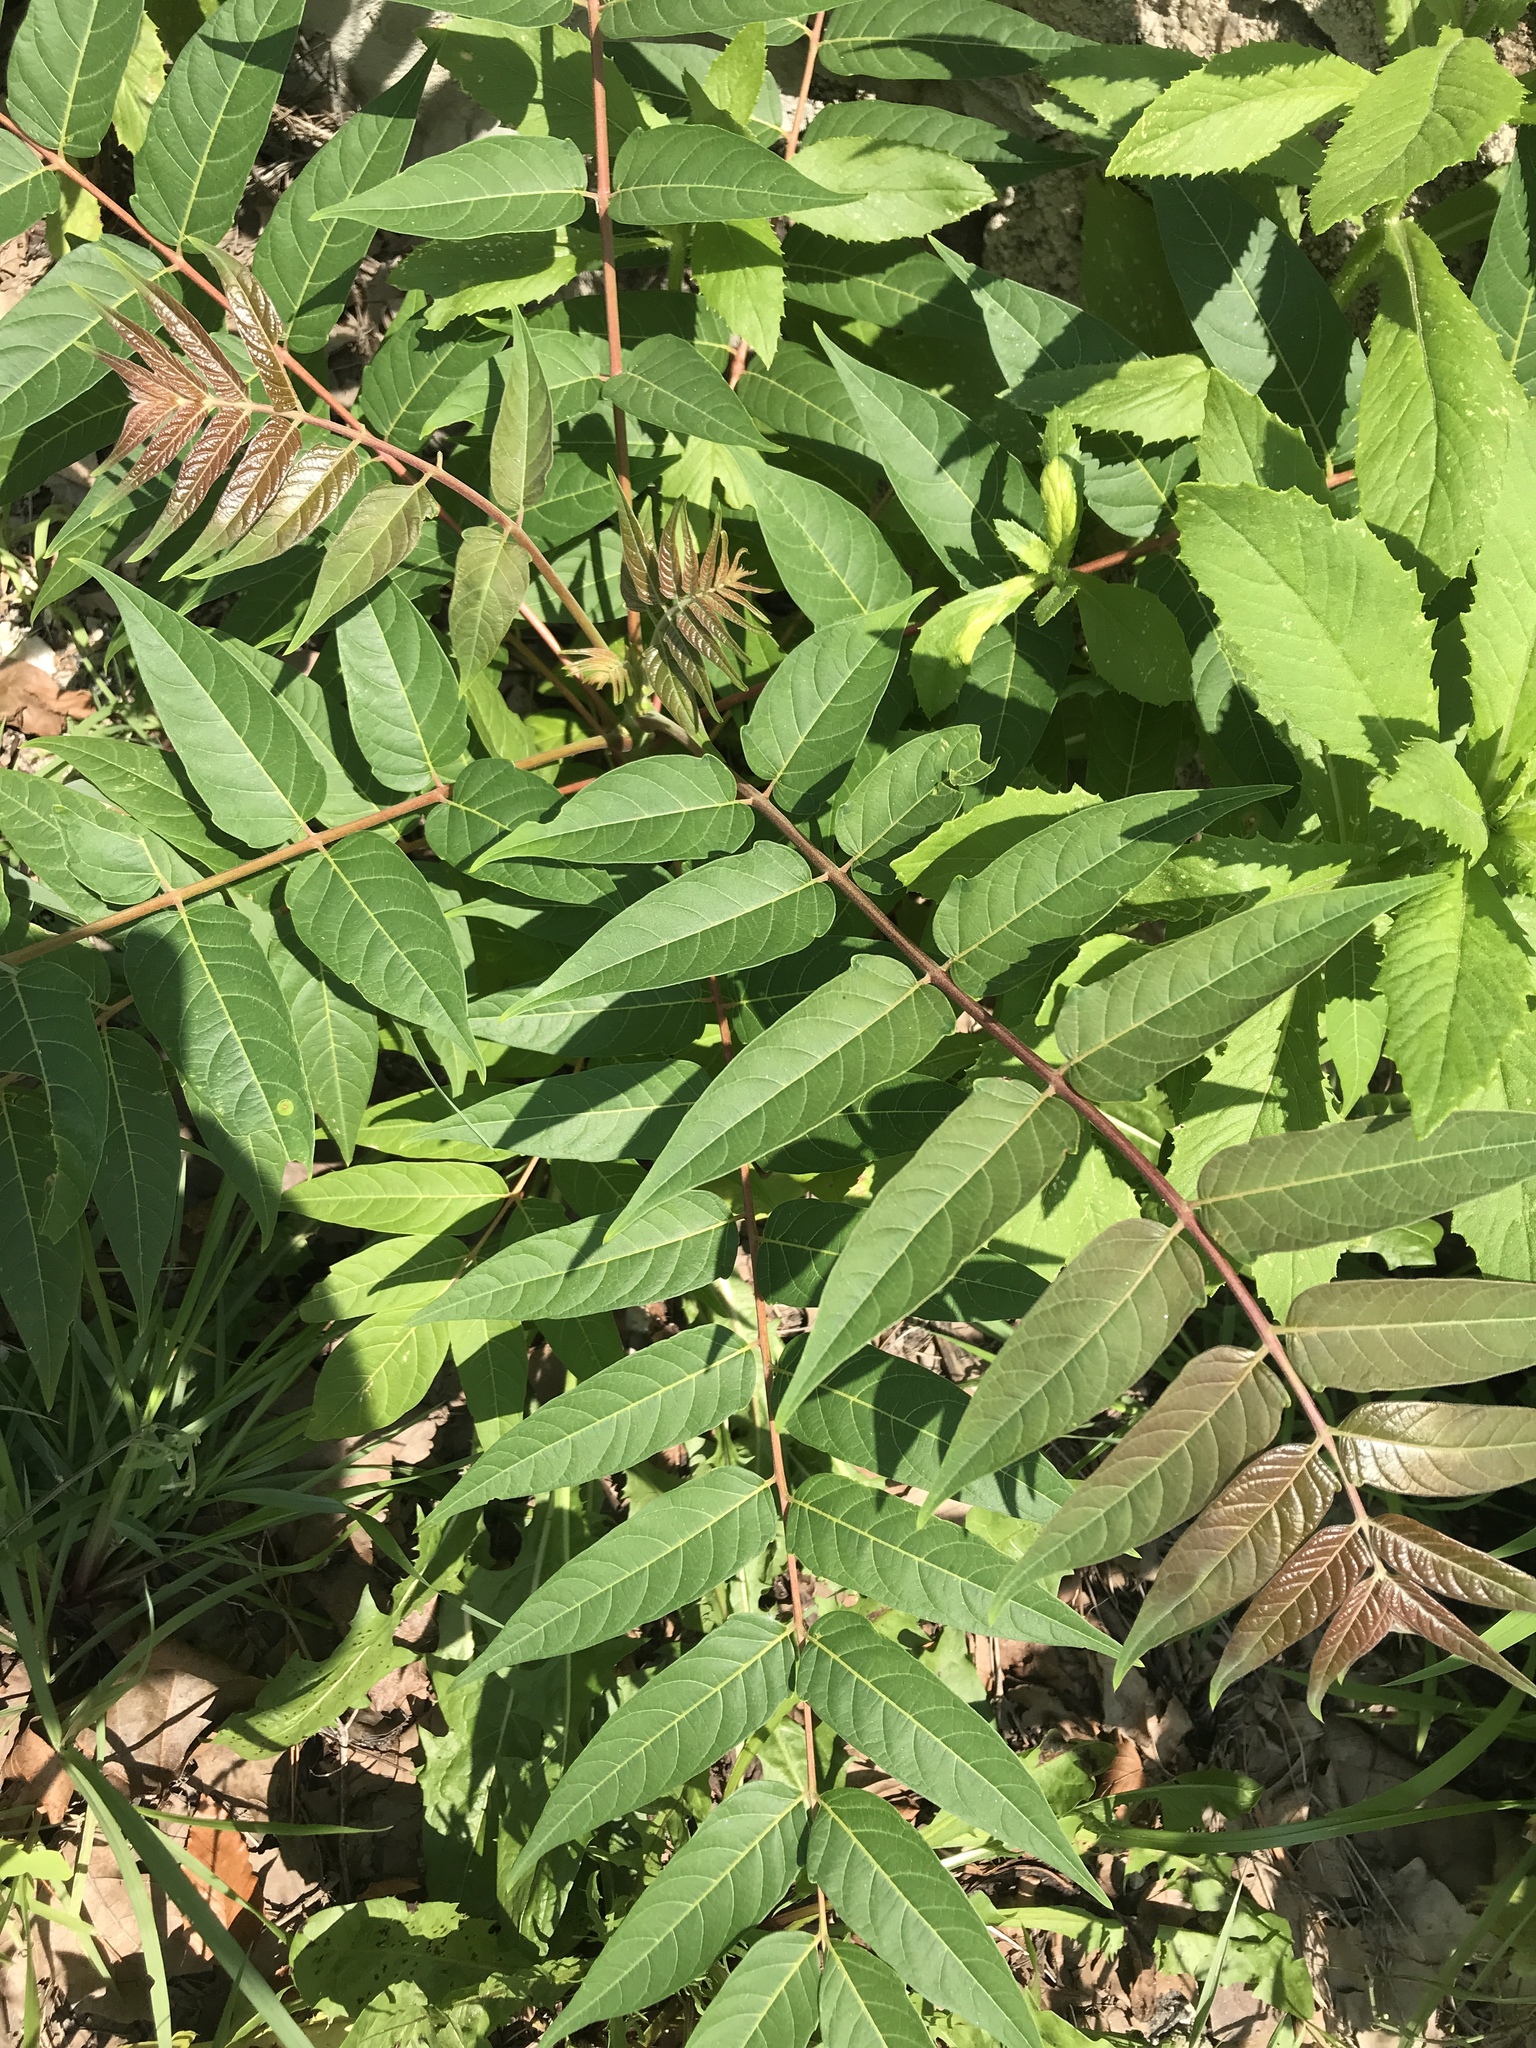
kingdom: Plantae
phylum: Tracheophyta
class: Magnoliopsida
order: Sapindales
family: Simaroubaceae
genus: Ailanthus
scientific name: Ailanthus altissima
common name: Tree-of-heaven
